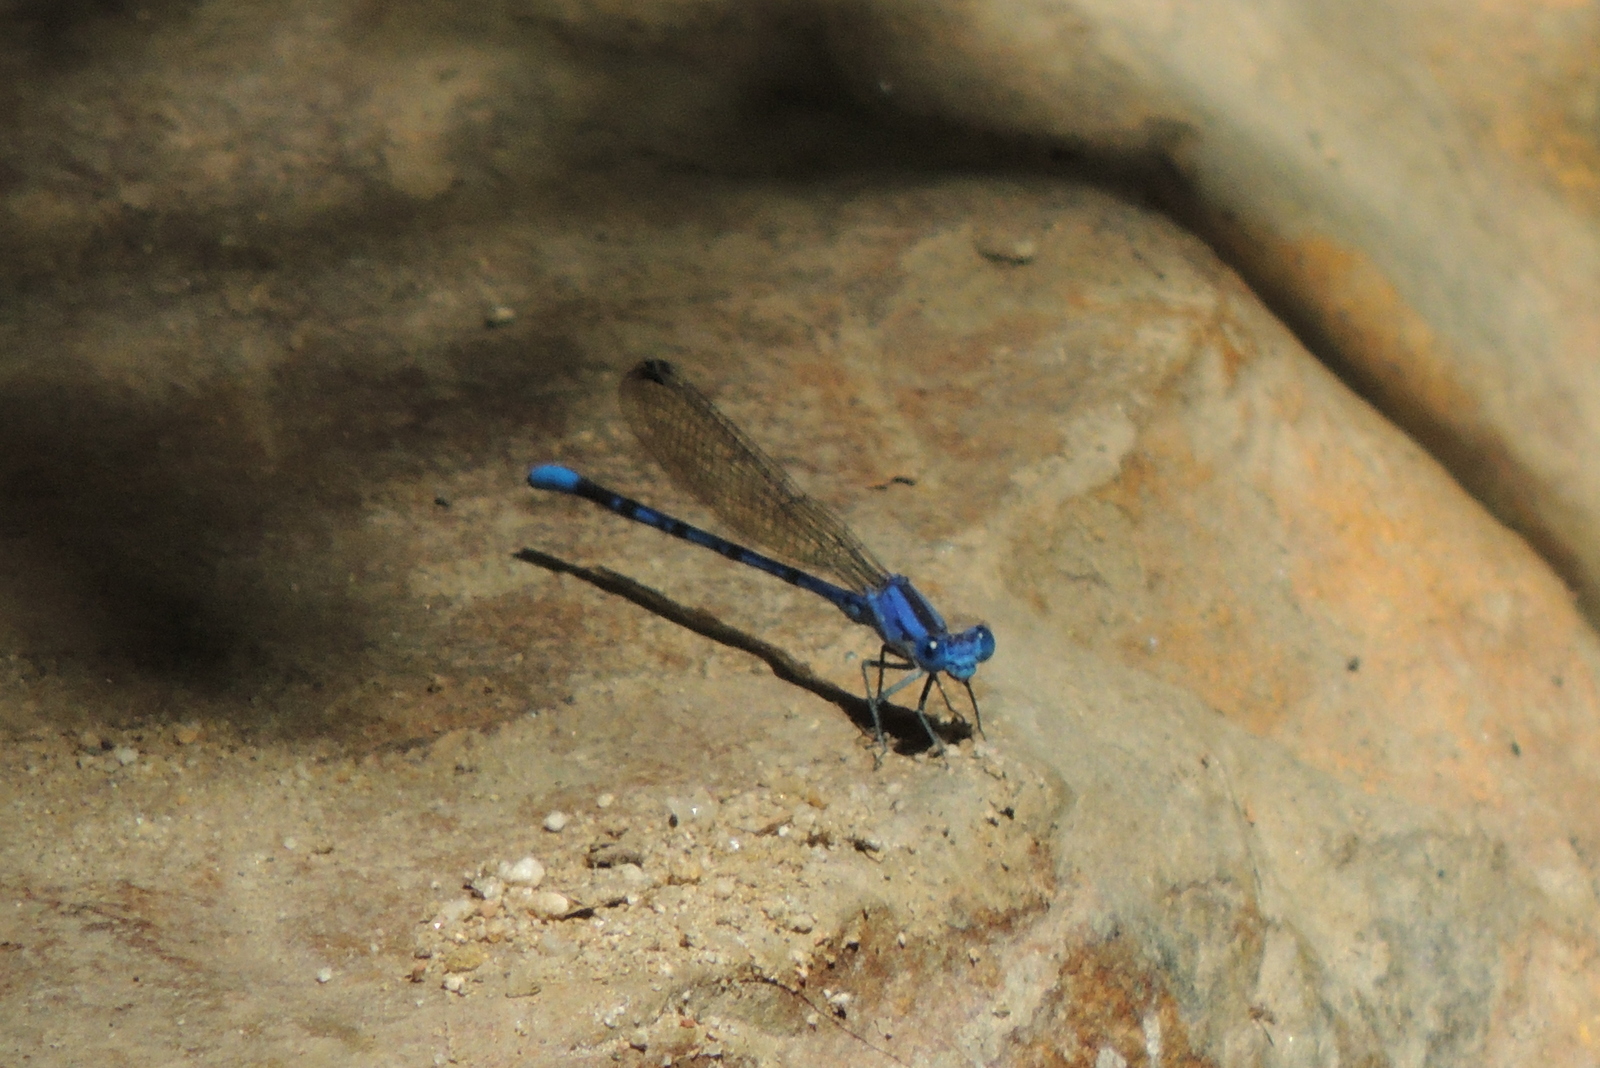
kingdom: Animalia
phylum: Arthropoda
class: Insecta
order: Odonata
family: Coenagrionidae
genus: Argia
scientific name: Argia vivida
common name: Vivid dancer
